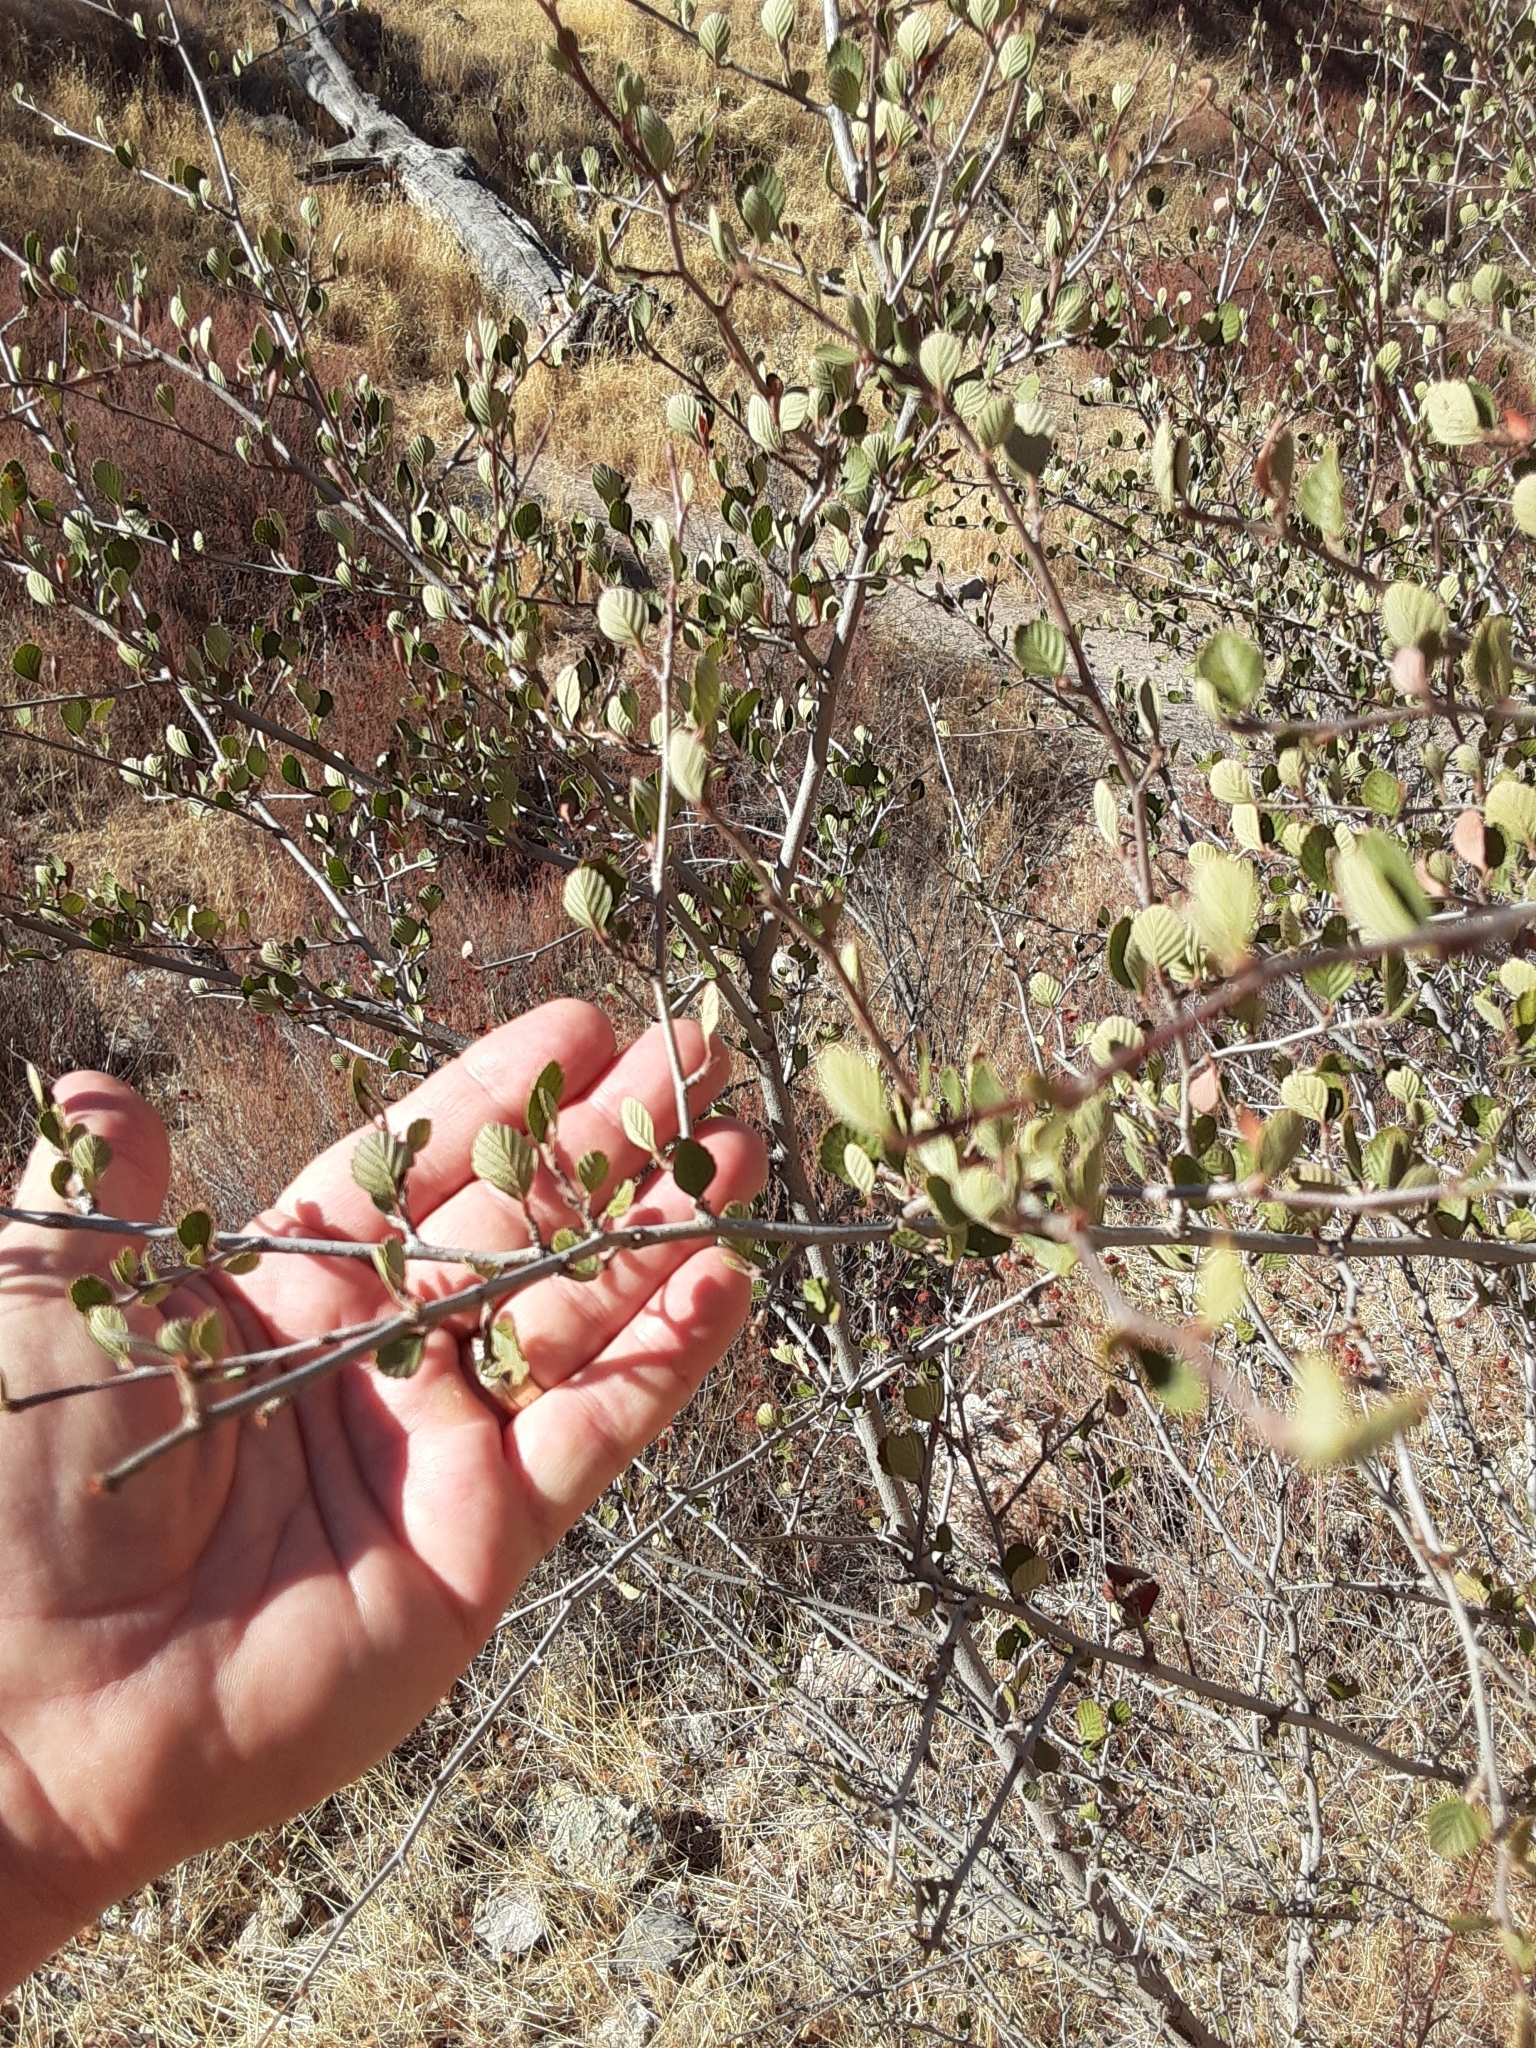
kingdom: Plantae
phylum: Tracheophyta
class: Magnoliopsida
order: Rosales
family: Rosaceae
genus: Cercocarpus
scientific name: Cercocarpus betuloides
